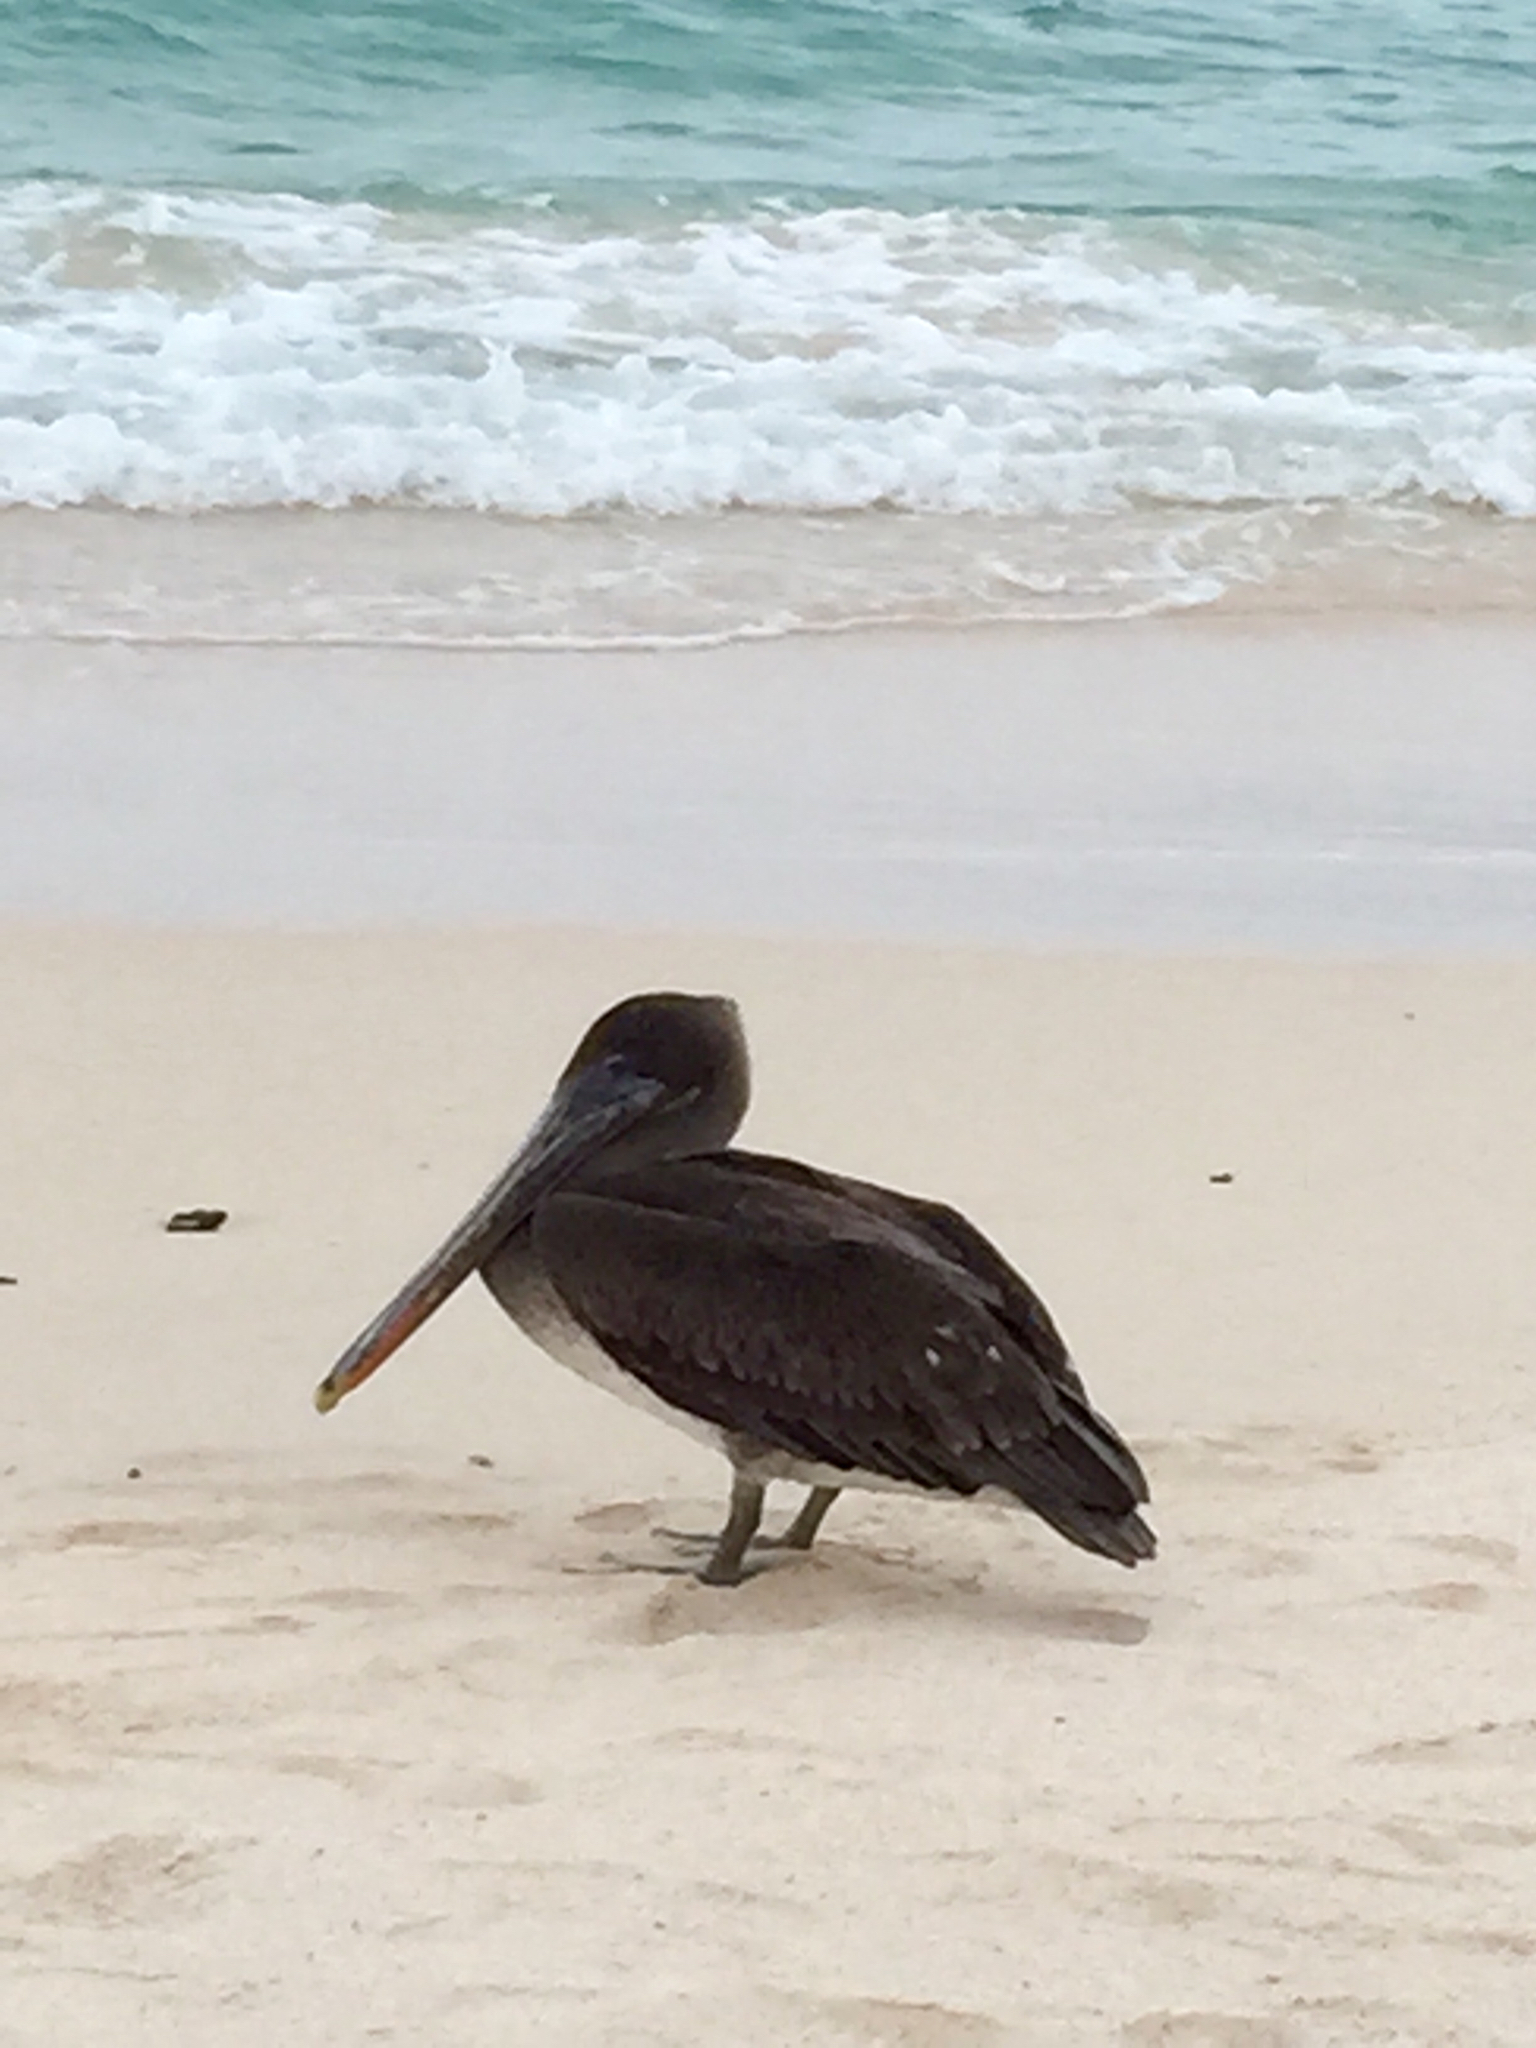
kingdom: Animalia
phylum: Chordata
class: Aves
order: Pelecaniformes
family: Pelecanidae
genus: Pelecanus
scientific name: Pelecanus occidentalis
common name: Brown pelican
